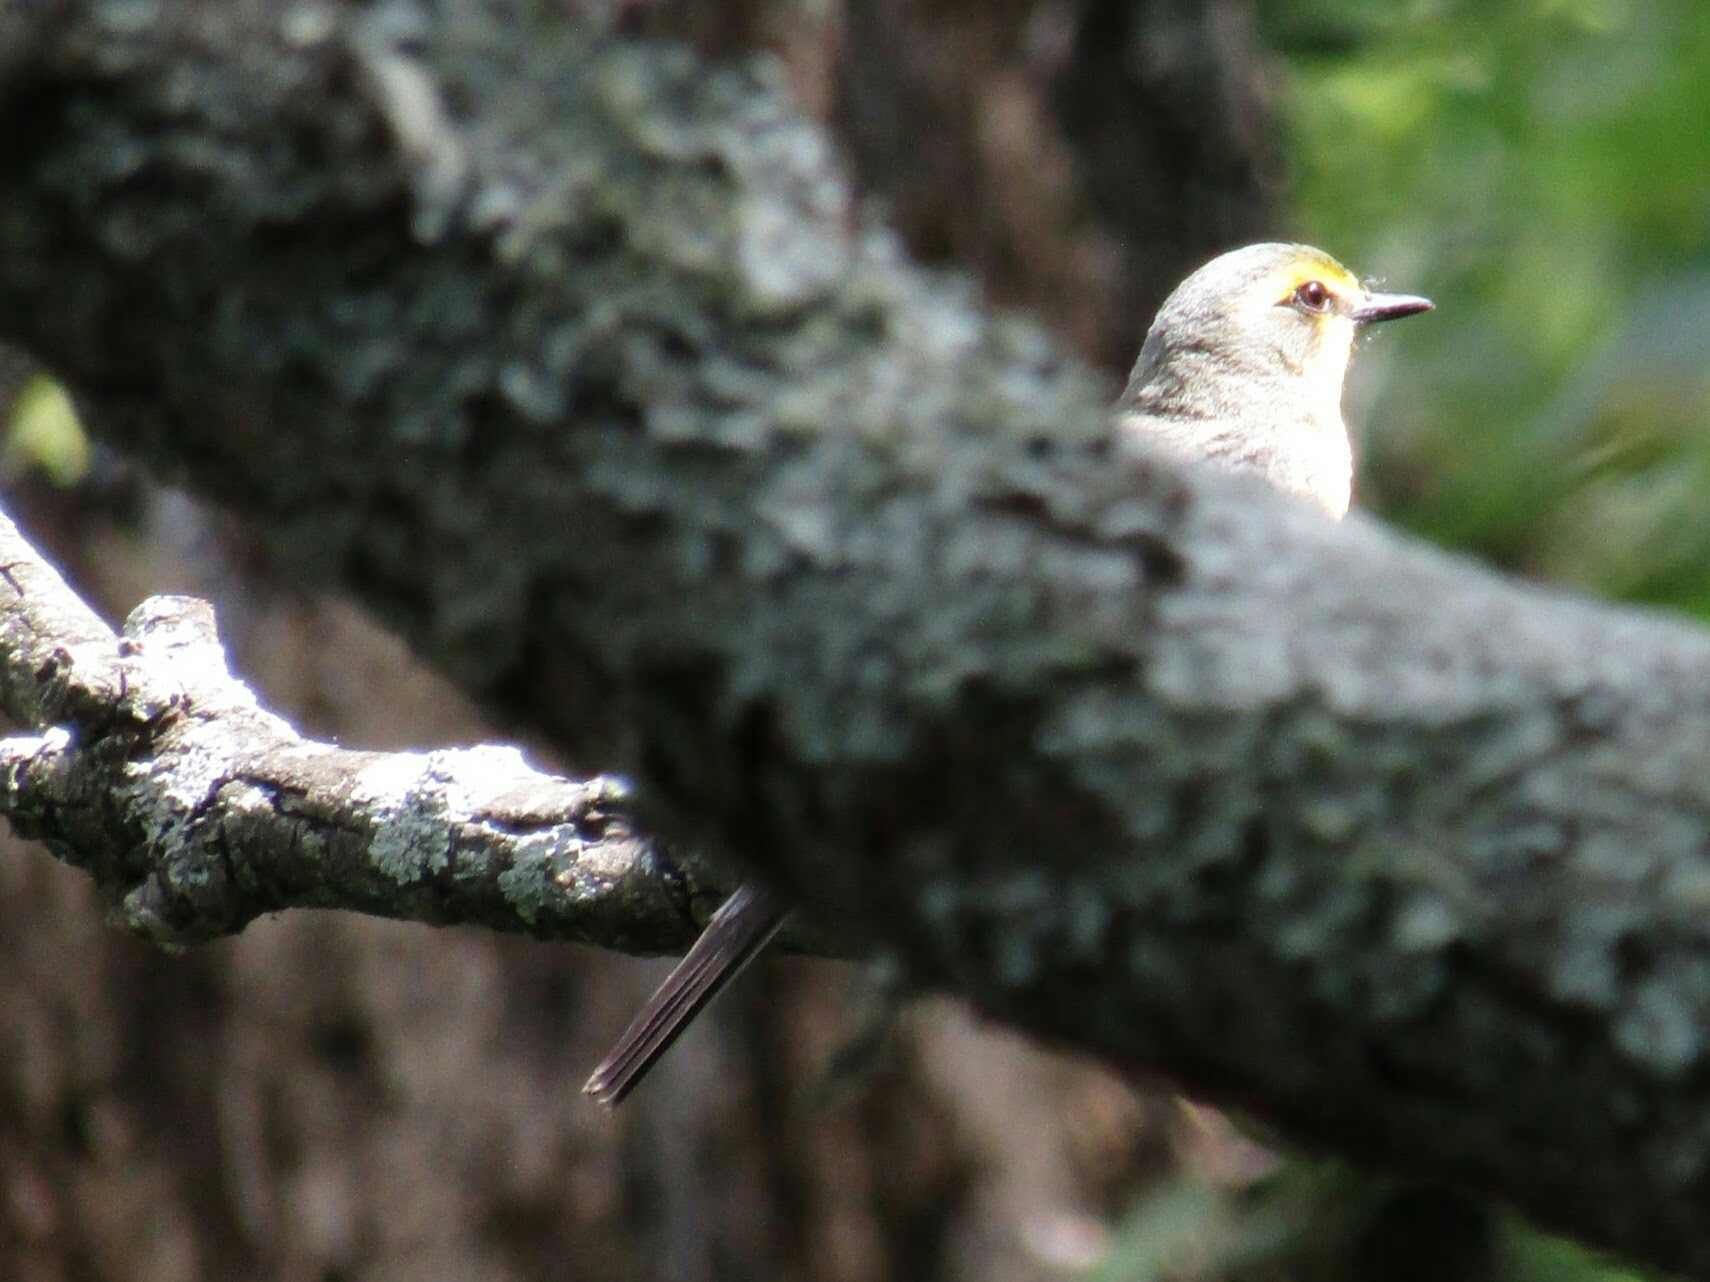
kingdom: Animalia
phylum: Chordata
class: Aves
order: Passeriformes
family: Tyrannidae
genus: Satrapa
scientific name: Satrapa icterophrys
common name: Yellow-browed tyrant
